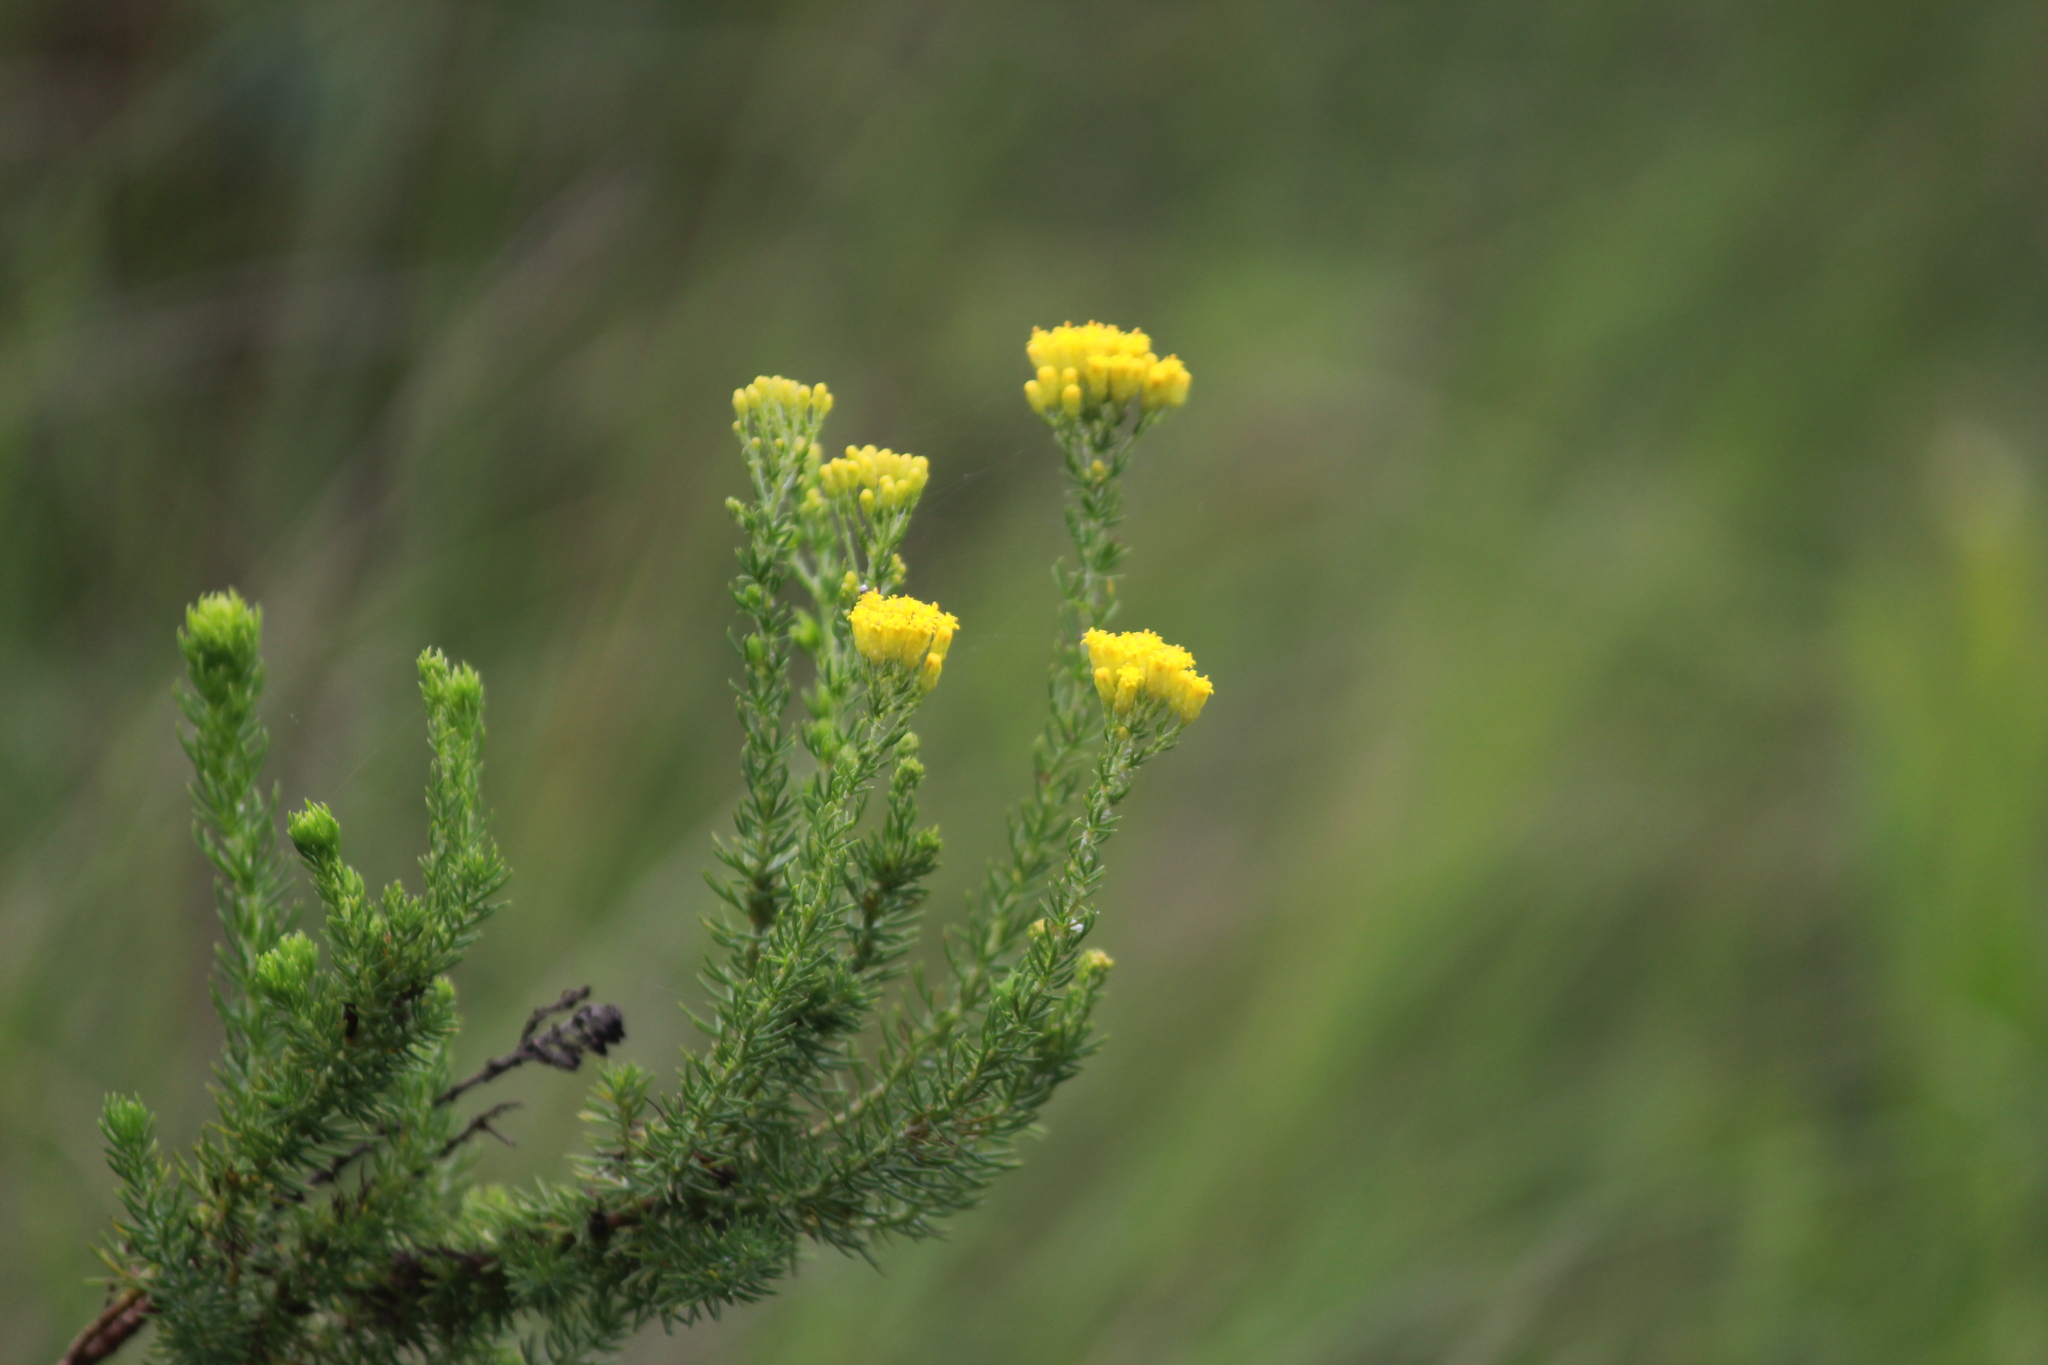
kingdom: Plantae
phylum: Tracheophyta
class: Magnoliopsida
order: Asterales
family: Asteraceae
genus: Phymaspermum
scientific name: Phymaspermum acerosum
